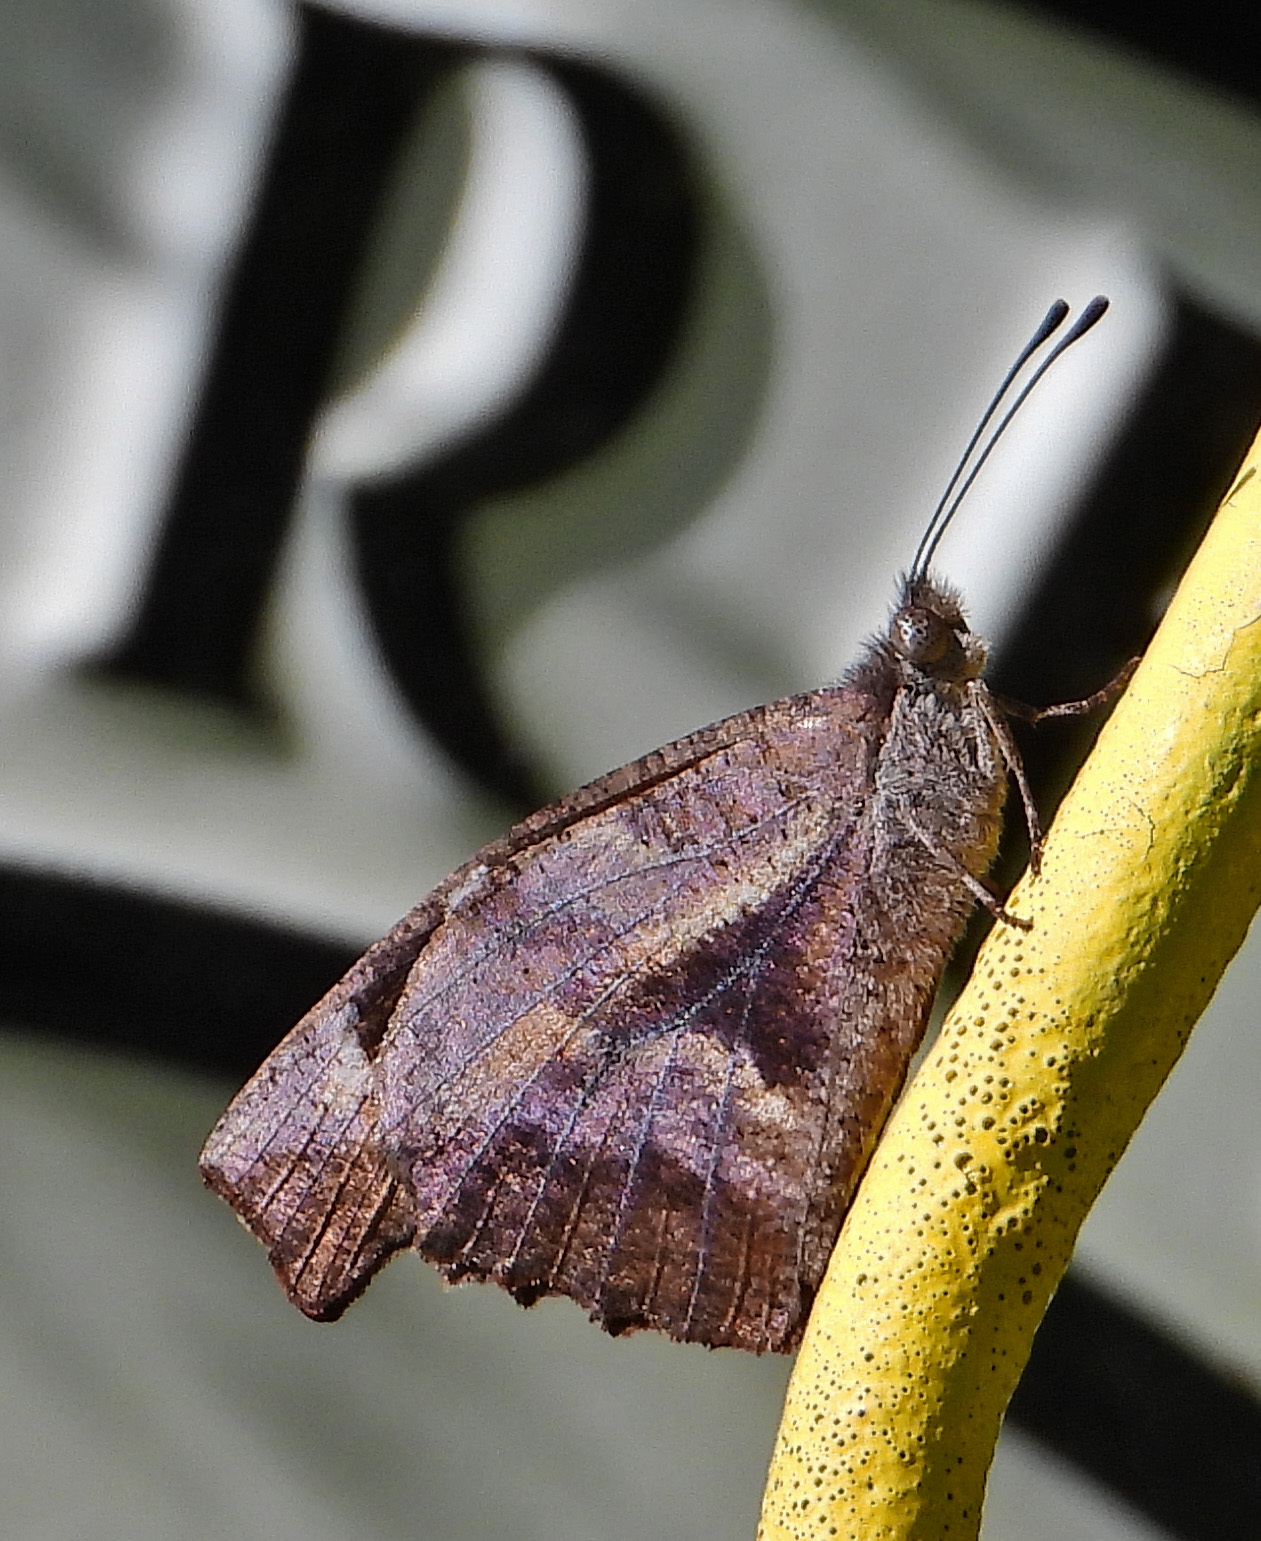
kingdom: Animalia
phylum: Arthropoda
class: Insecta
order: Lepidoptera
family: Nymphalidae
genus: Libytheana
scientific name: Libytheana carinenta
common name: American snout
